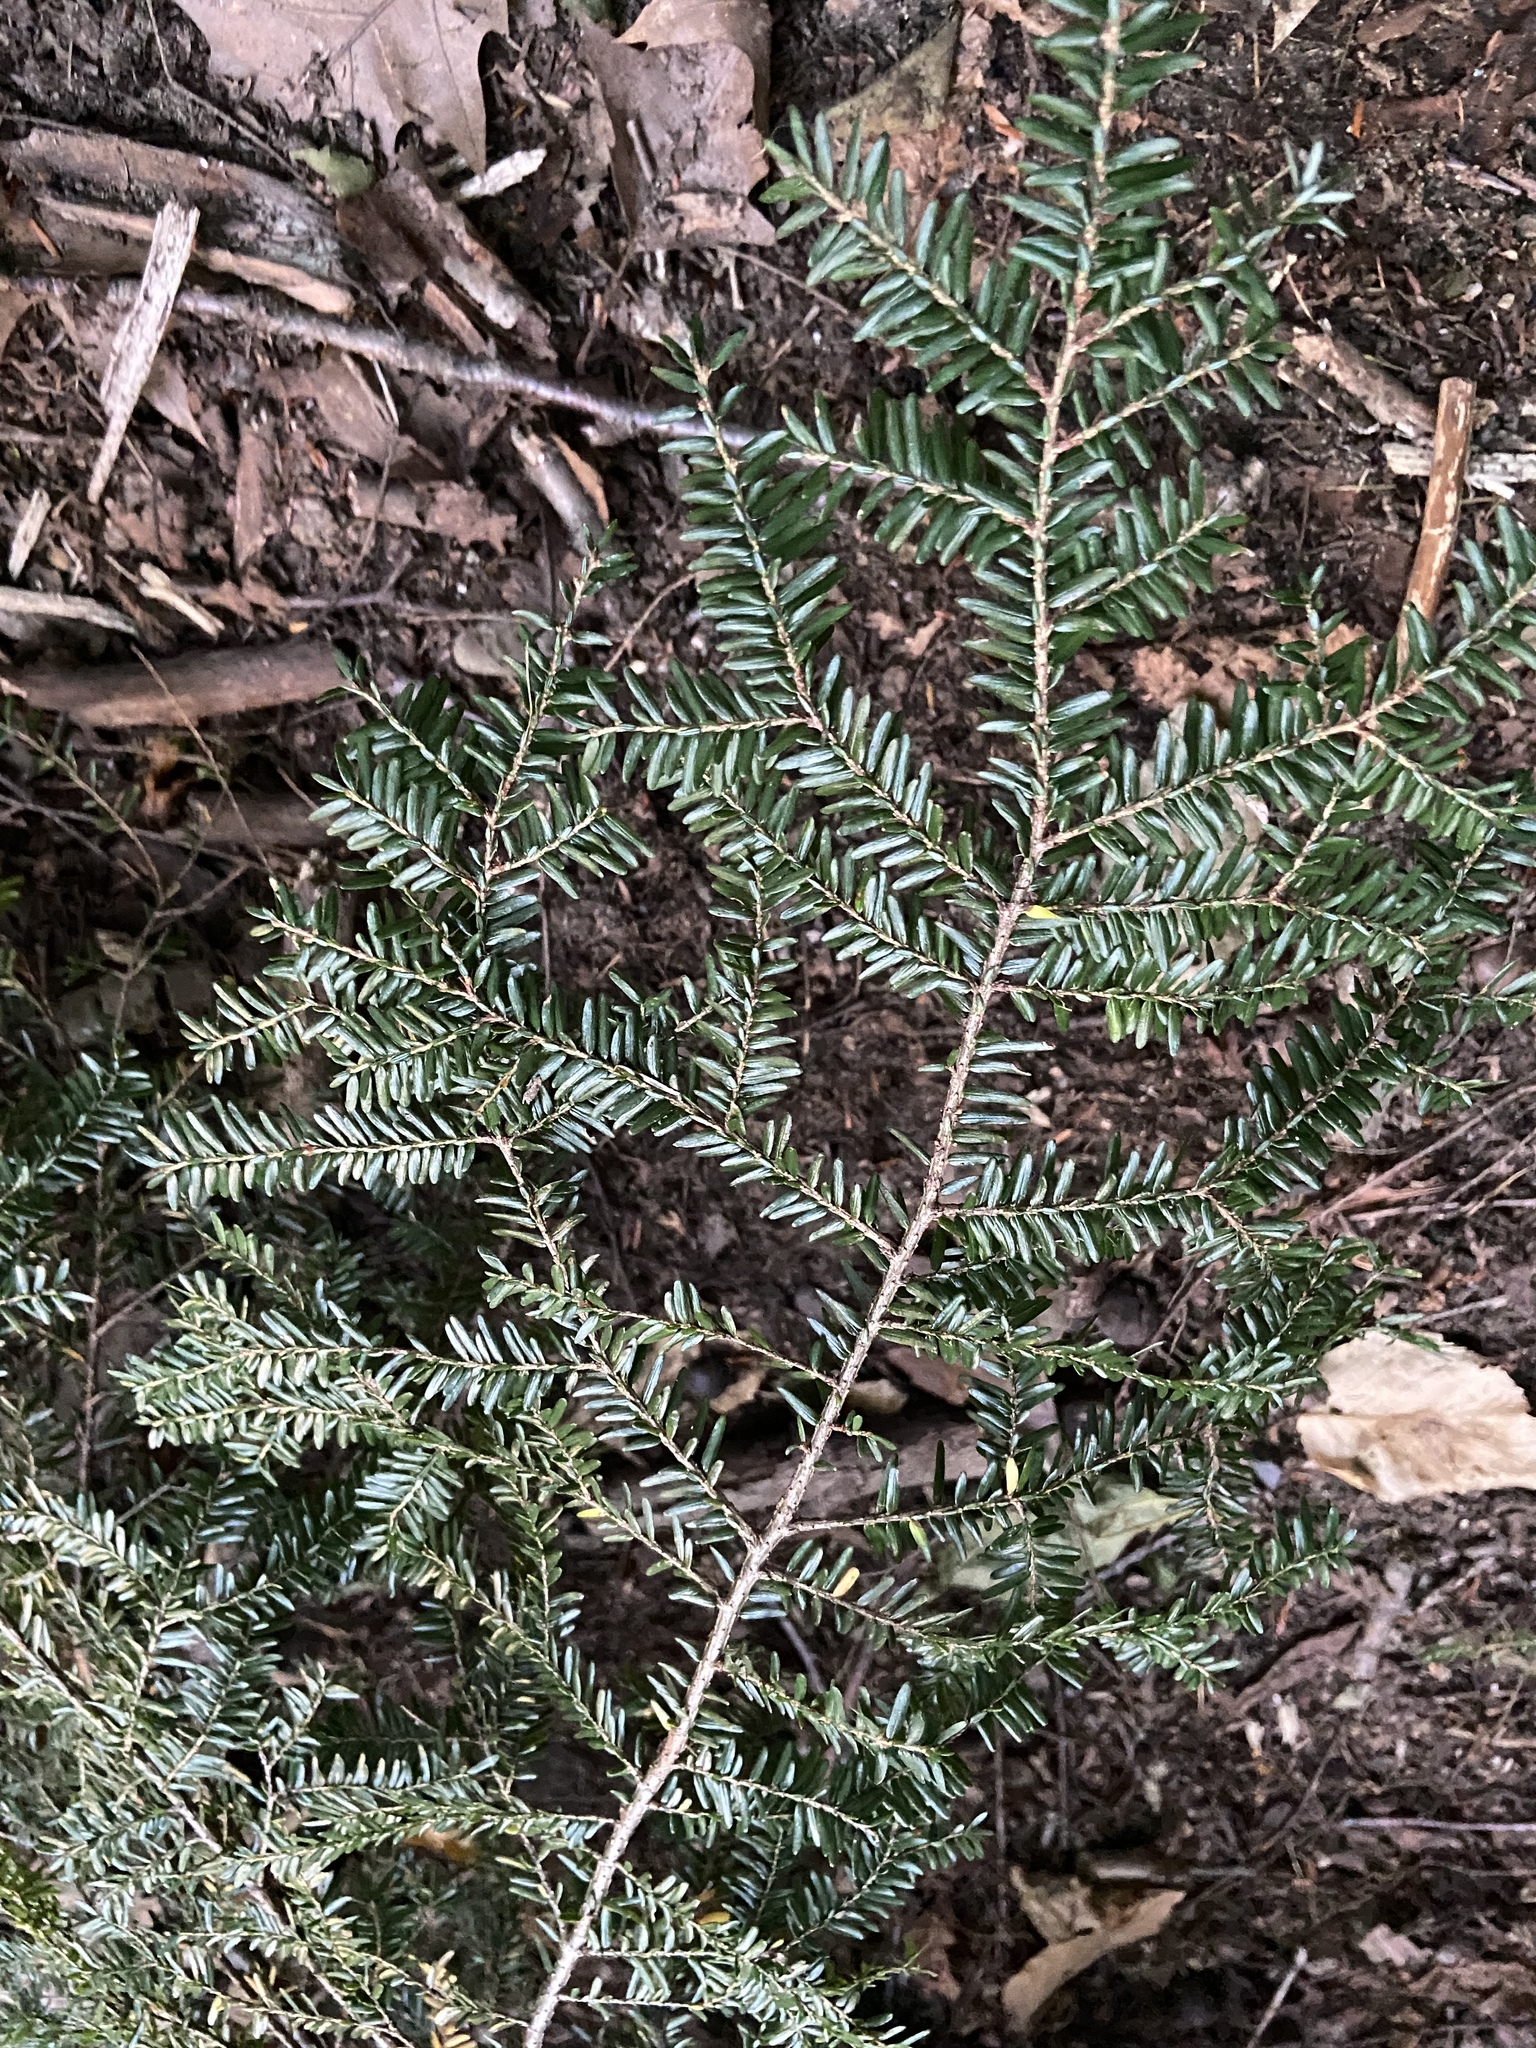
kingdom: Plantae
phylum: Tracheophyta
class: Pinopsida
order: Pinales
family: Pinaceae
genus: Tsuga
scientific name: Tsuga canadensis
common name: Eastern hemlock
